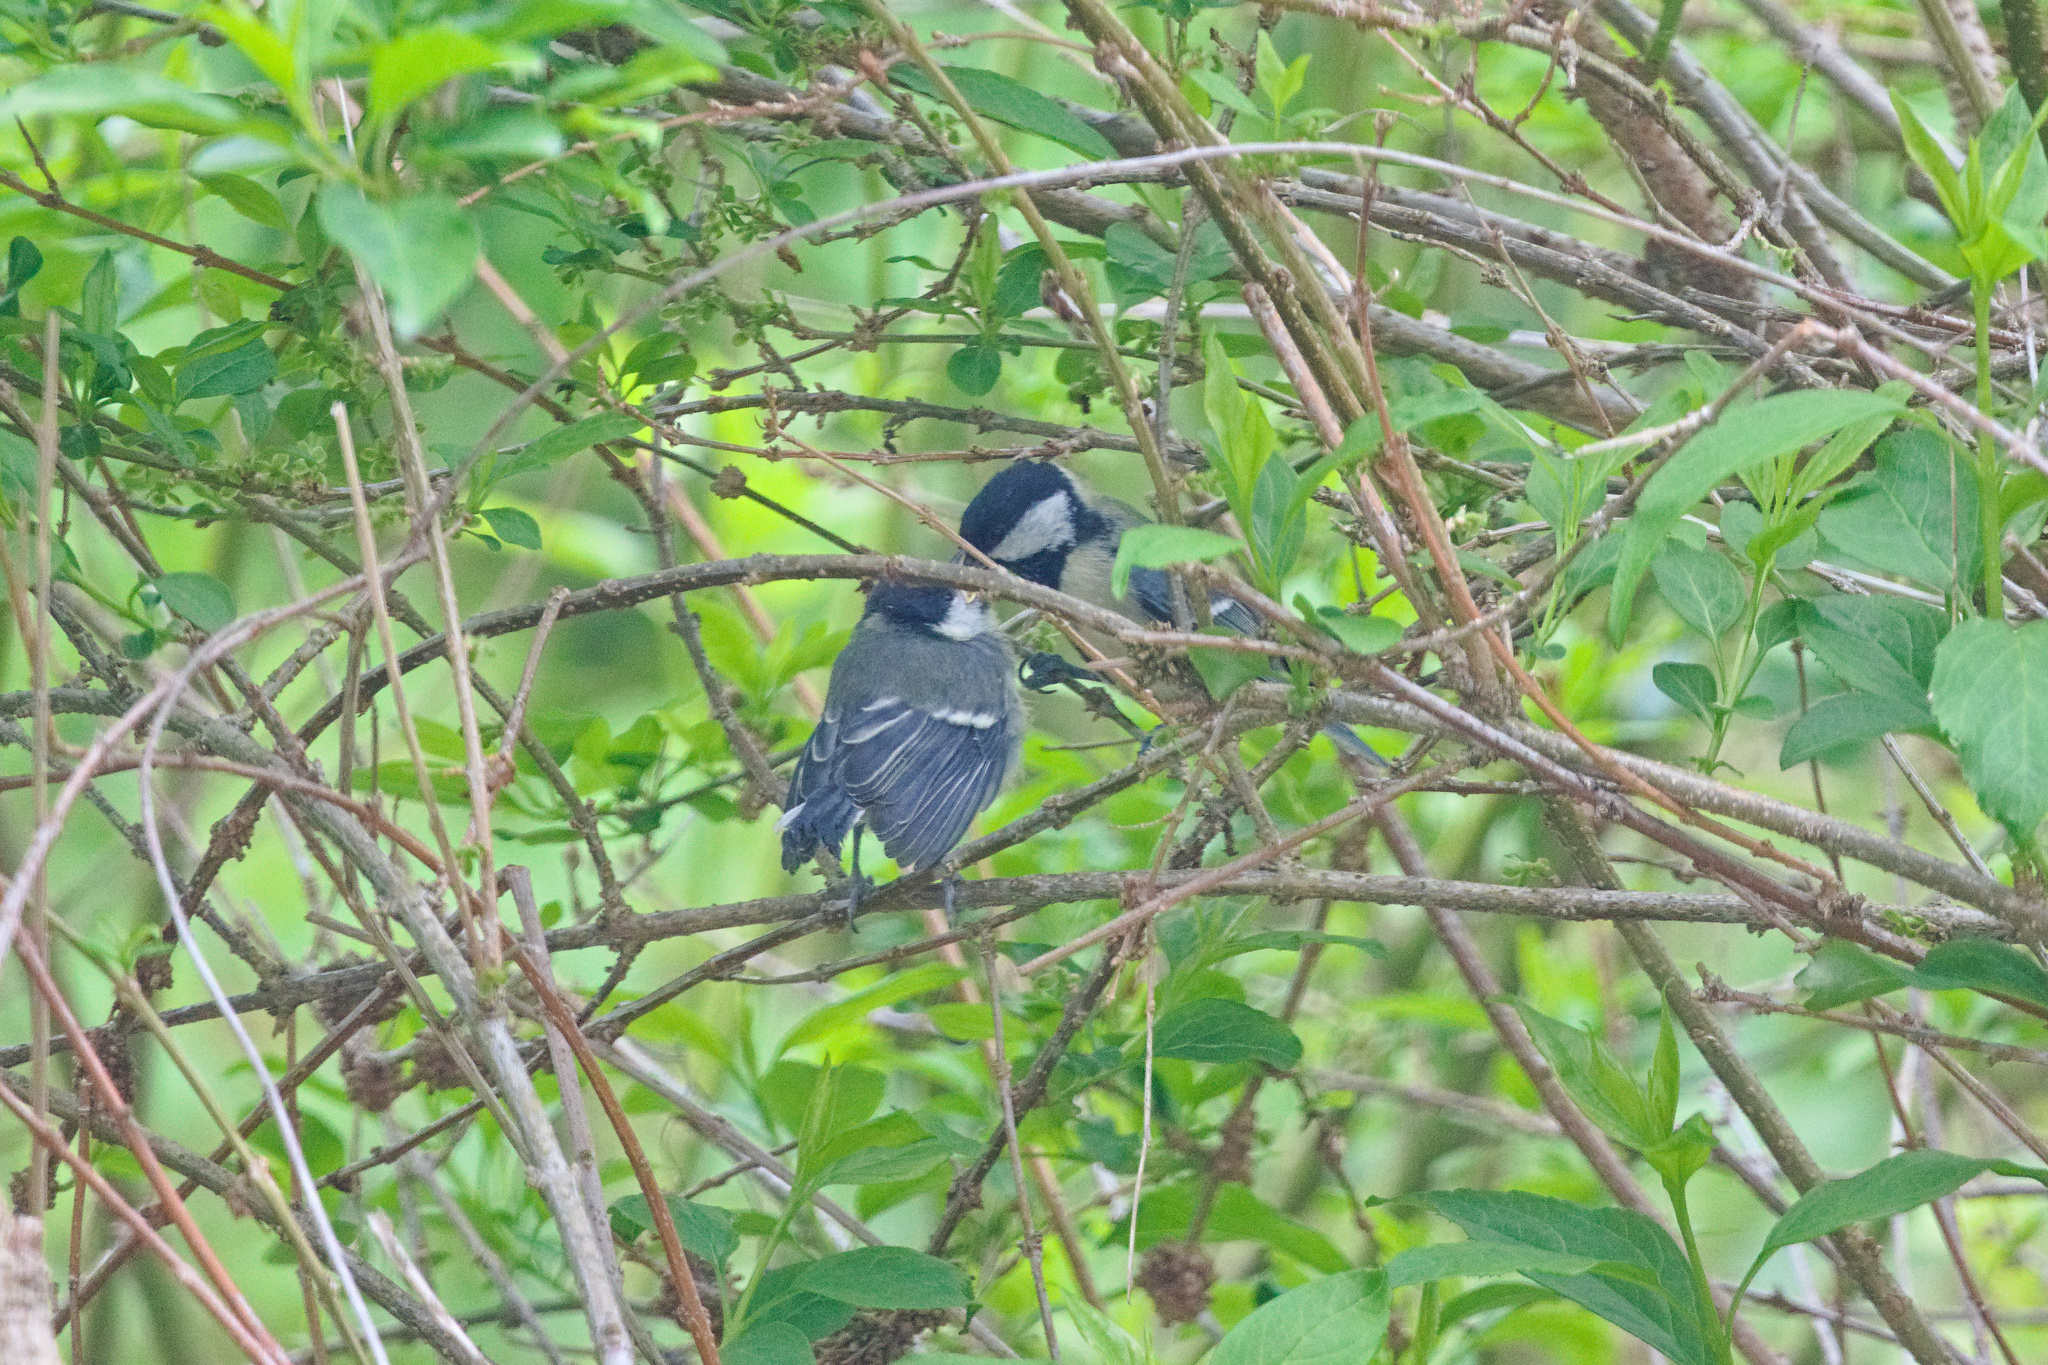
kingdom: Animalia
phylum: Chordata
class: Aves
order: Passeriformes
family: Paridae
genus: Parus
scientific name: Parus major
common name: Great tit
